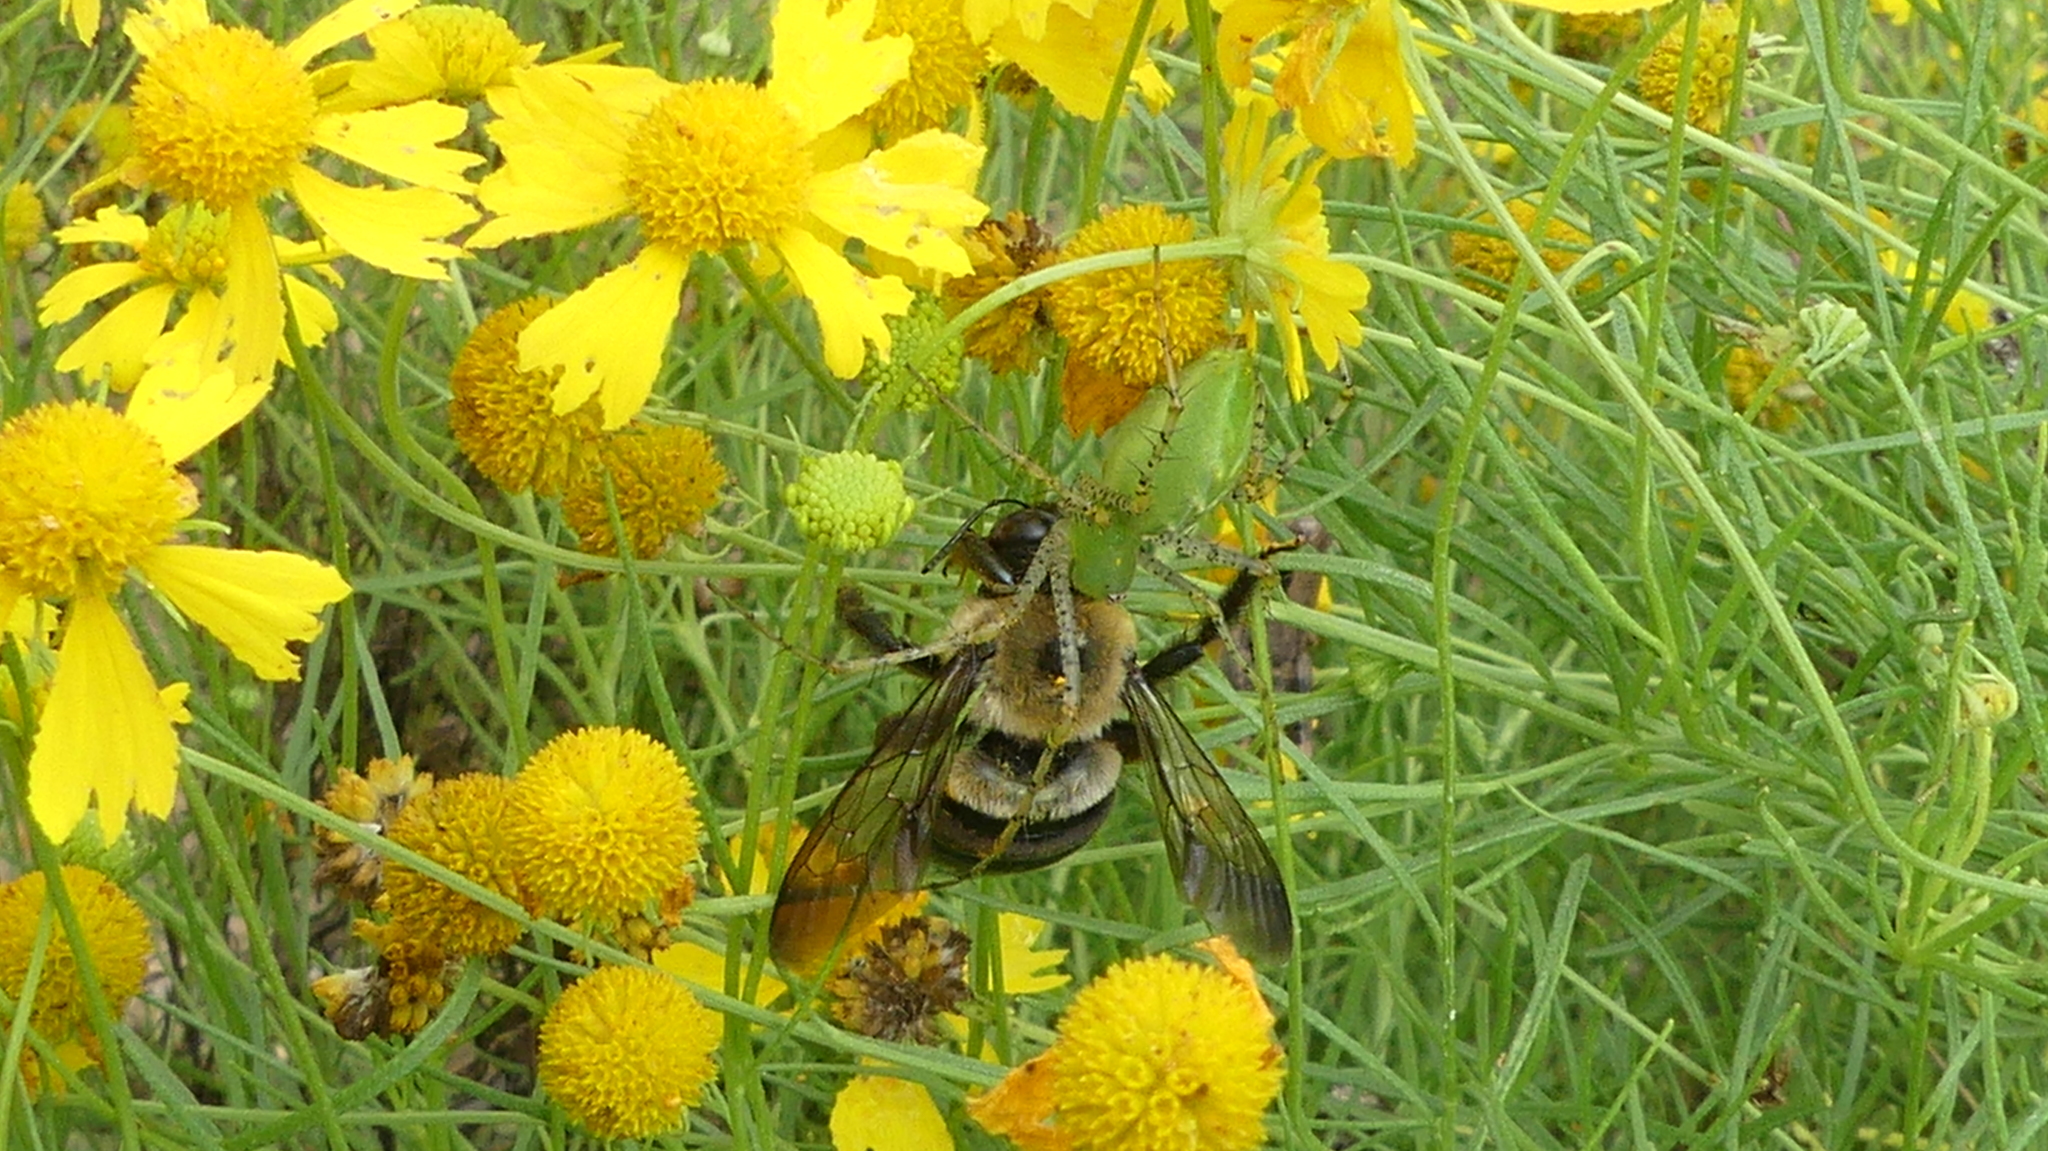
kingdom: Animalia
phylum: Arthropoda
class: Arachnida
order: Araneae
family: Oxyopidae
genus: Peucetia
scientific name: Peucetia viridans
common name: Lynx spiders
